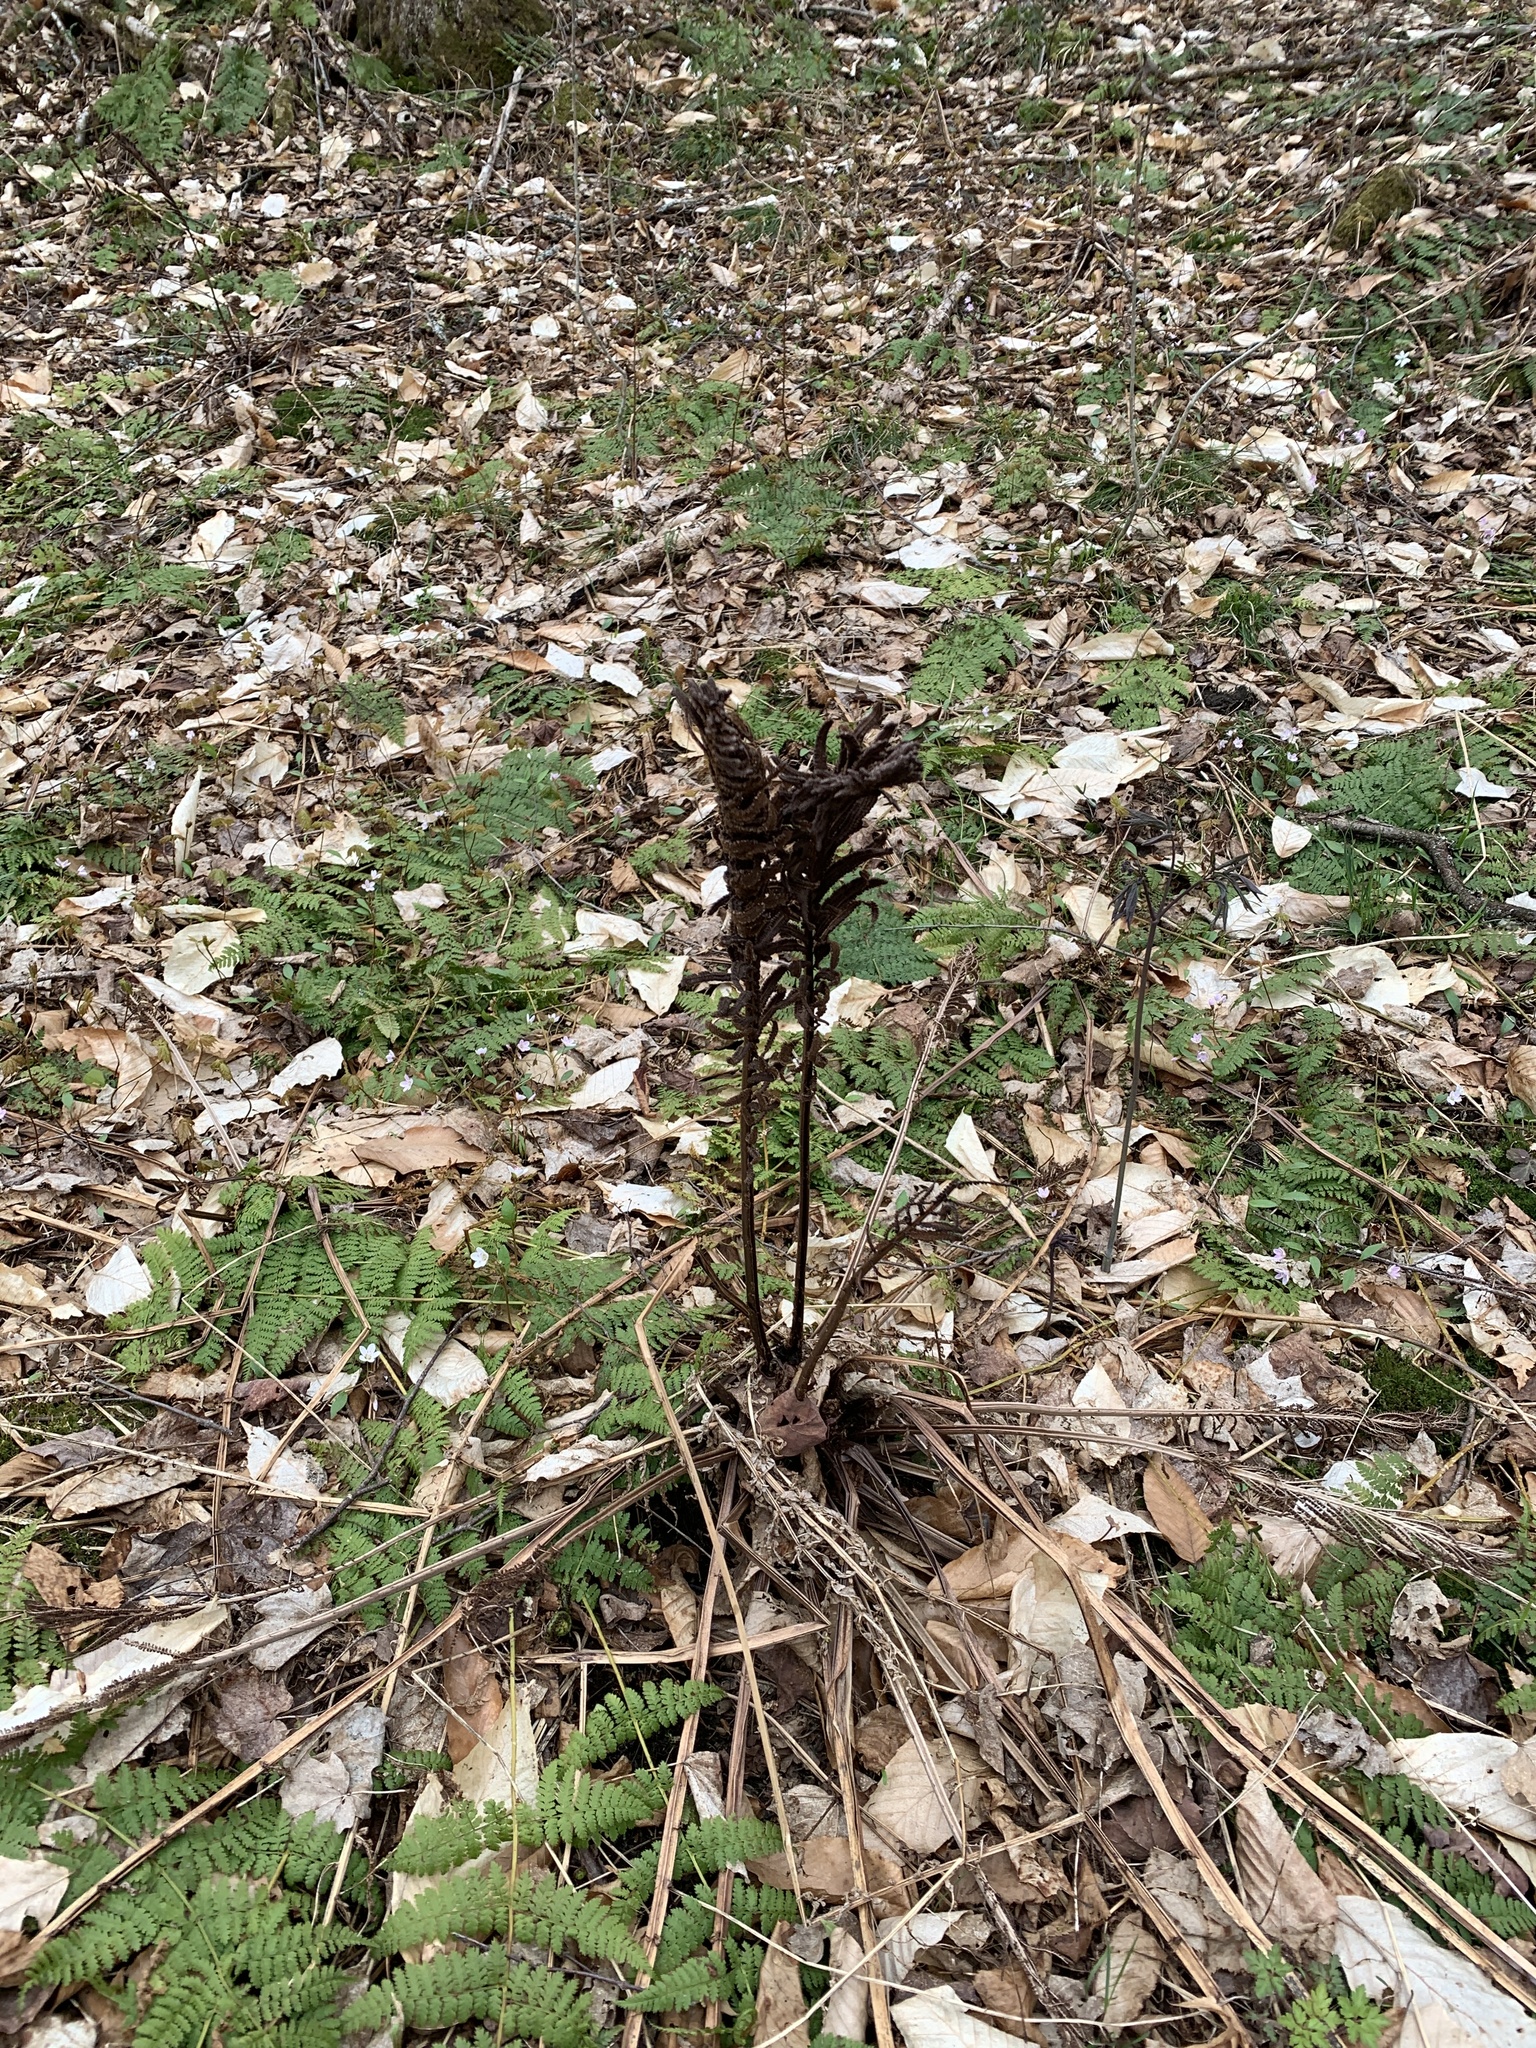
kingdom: Plantae
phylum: Tracheophyta
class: Polypodiopsida
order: Polypodiales
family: Onocleaceae
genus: Matteuccia
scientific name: Matteuccia struthiopteris
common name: Ostrich fern
